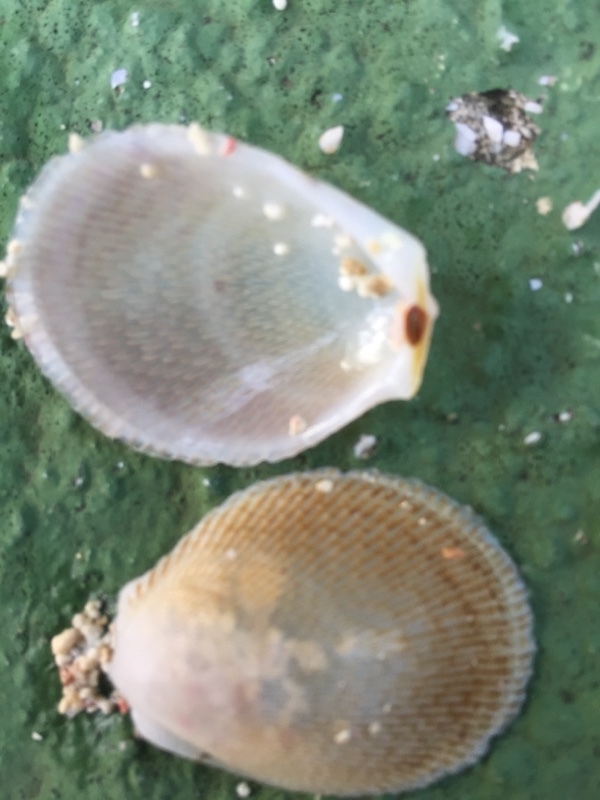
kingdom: Animalia
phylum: Mollusca
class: Bivalvia
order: Limida
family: Limidae
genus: Ctenoides
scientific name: Ctenoides scaber
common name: Rough fileclam
